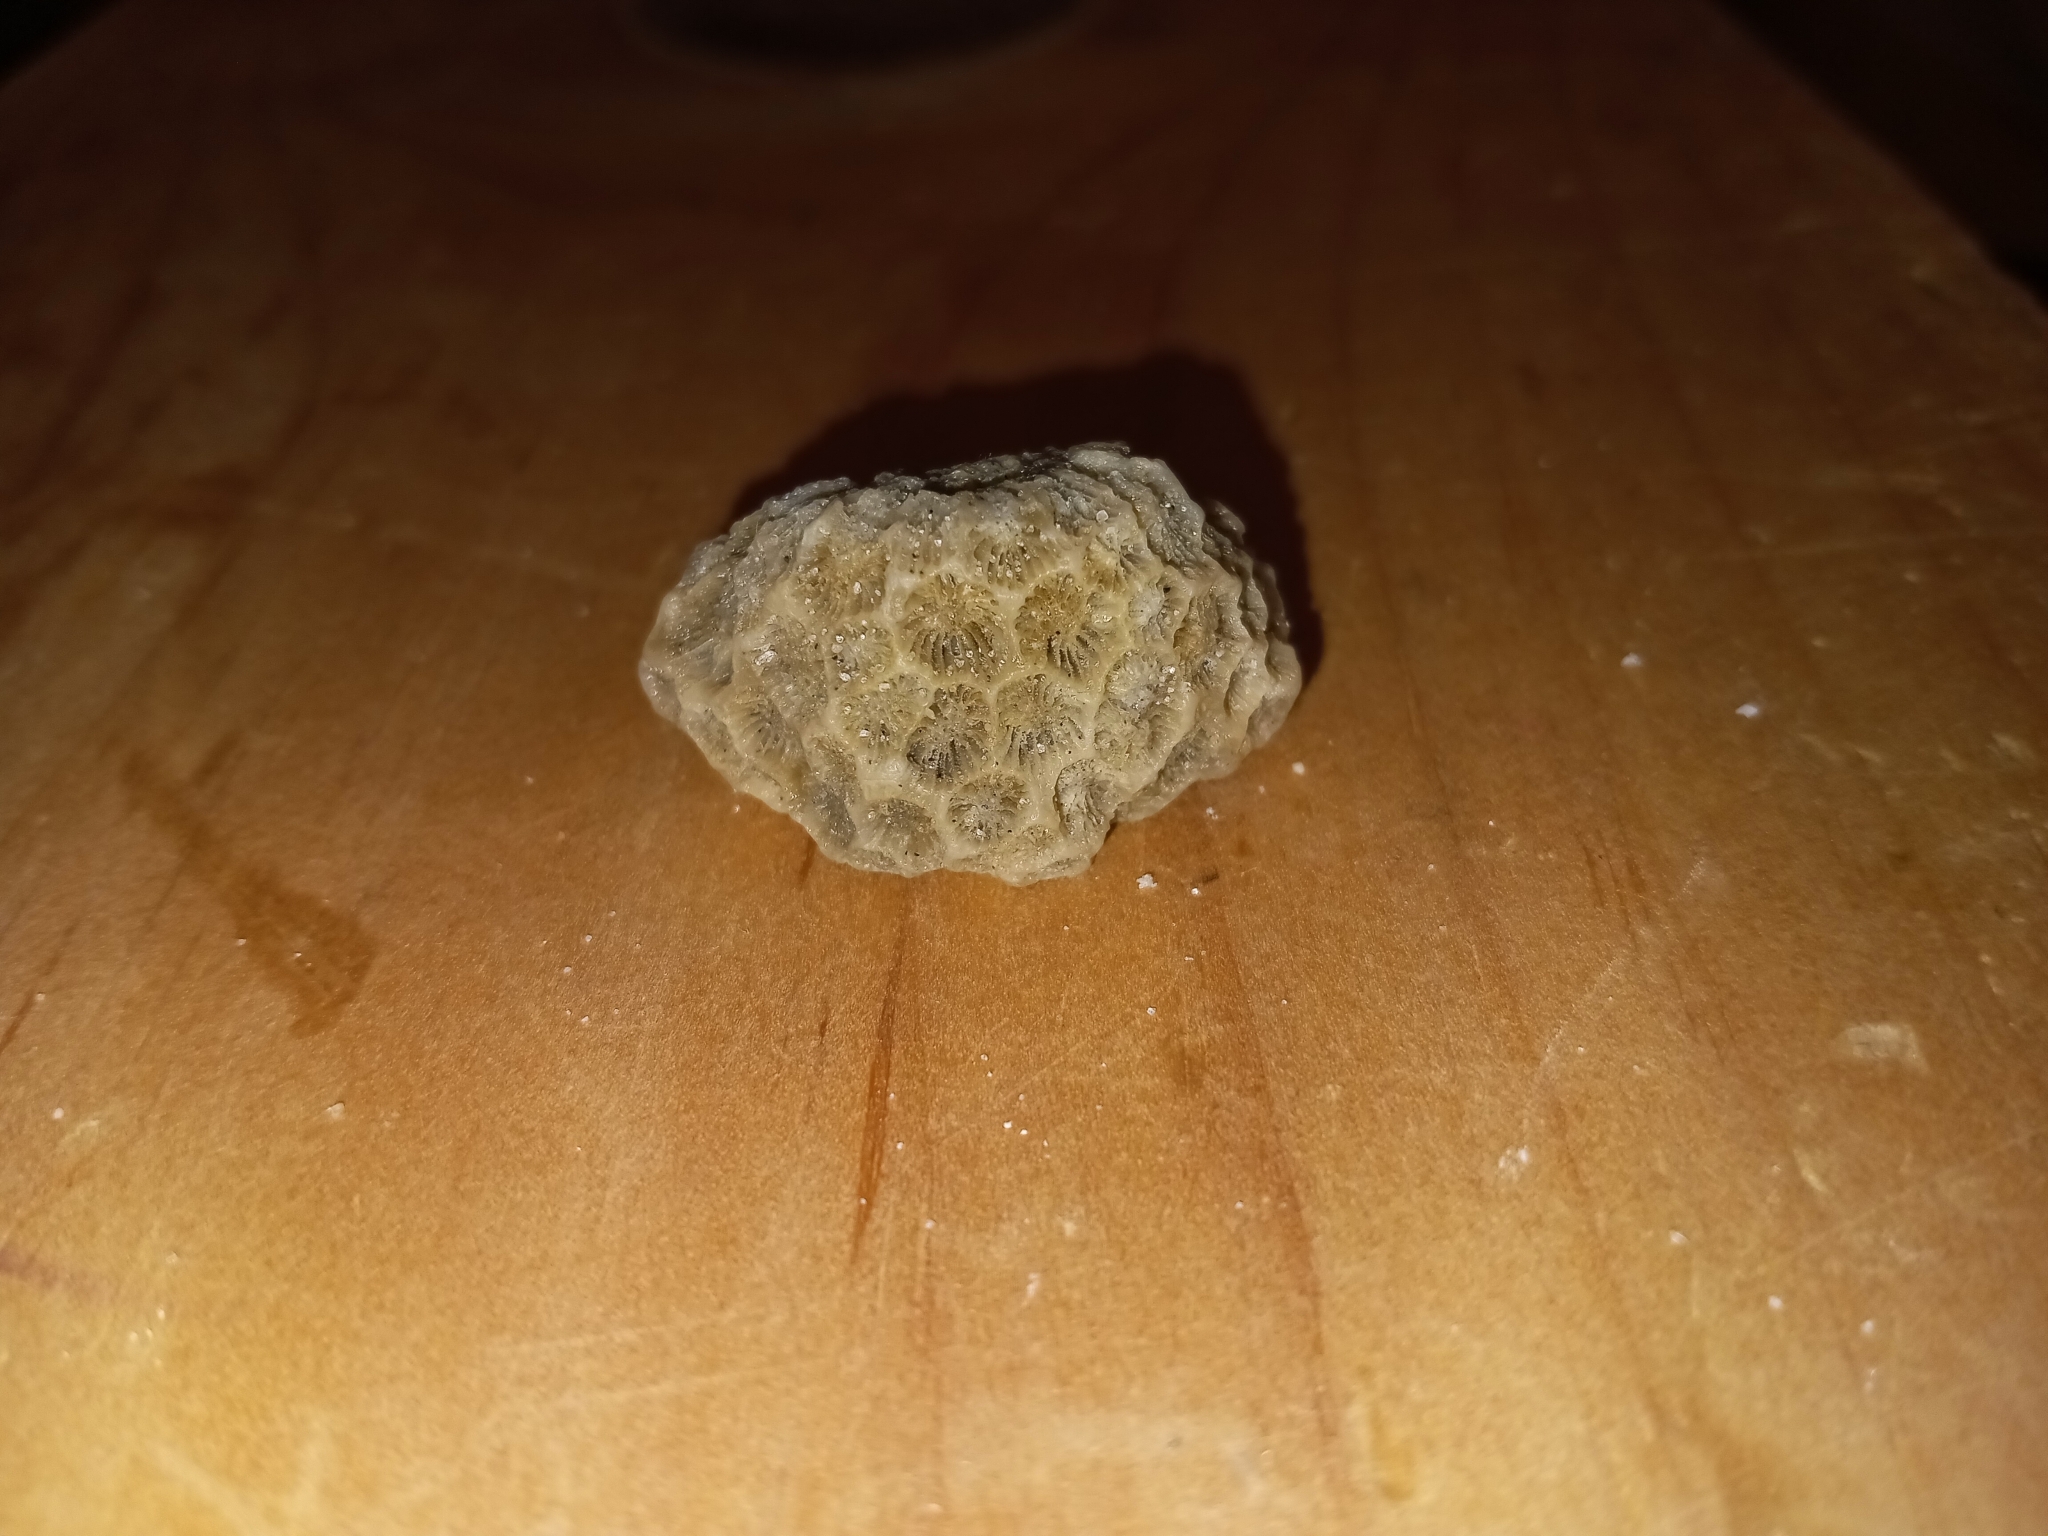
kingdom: Animalia
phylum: Cnidaria
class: Anthozoa
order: Scleractinia
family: Astrangiidae
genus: Astrangia
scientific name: Astrangia poculata
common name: Northern star coral
